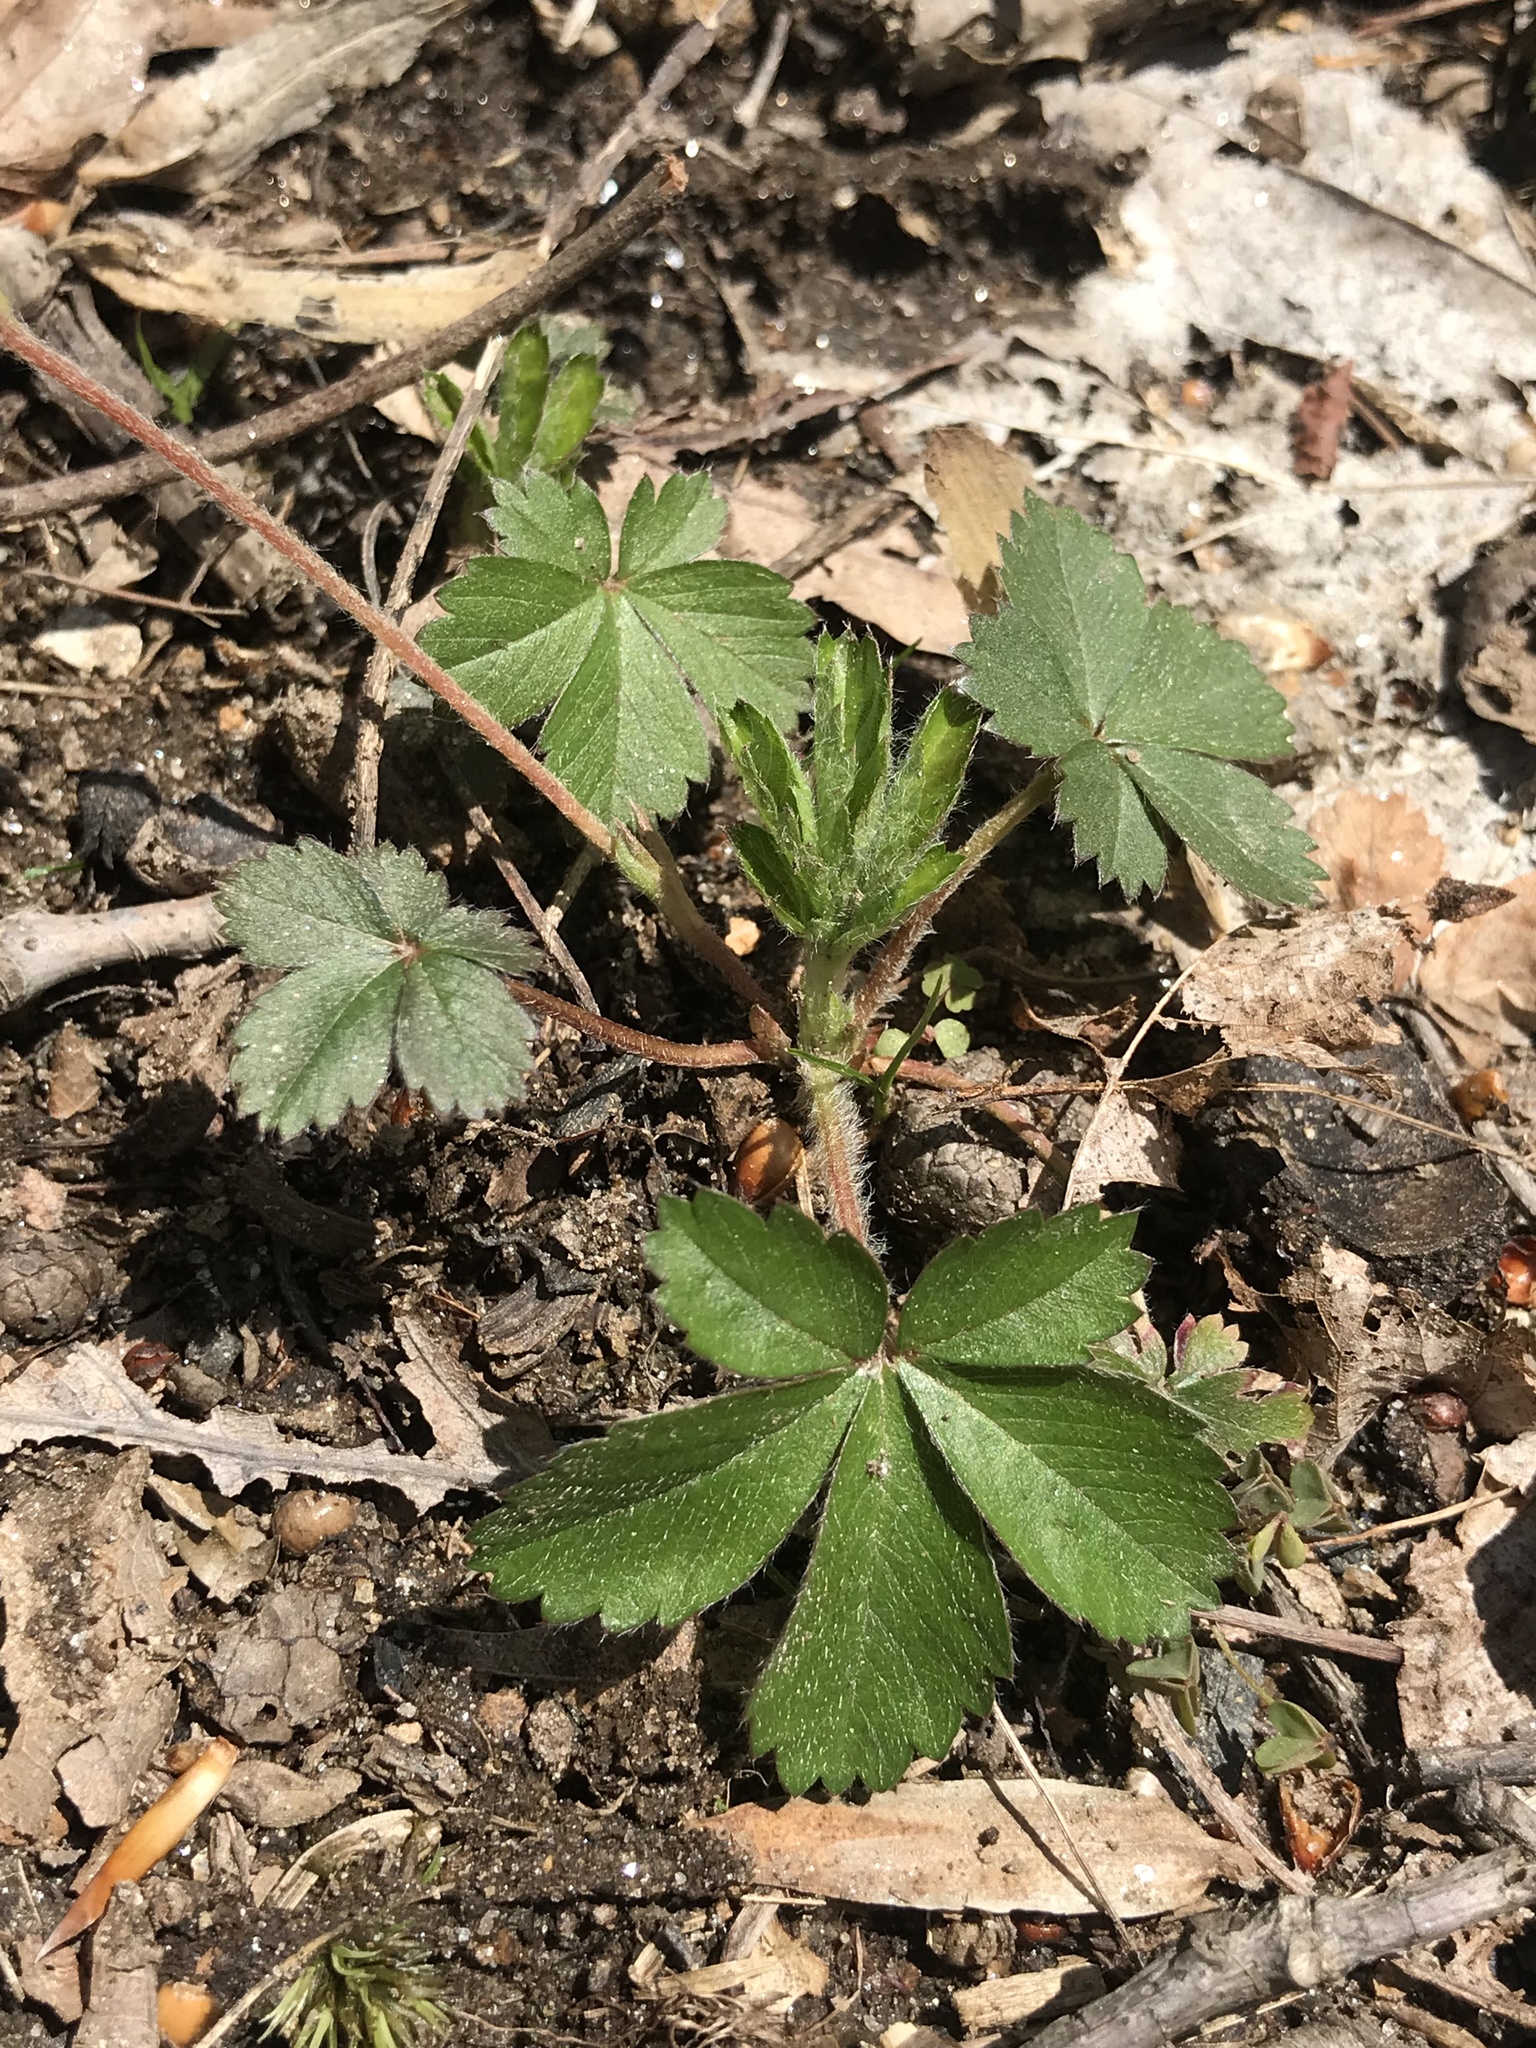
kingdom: Plantae
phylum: Tracheophyta
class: Magnoliopsida
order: Rosales
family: Rosaceae
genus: Potentilla
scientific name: Potentilla canadensis
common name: Canada cinquefoil
